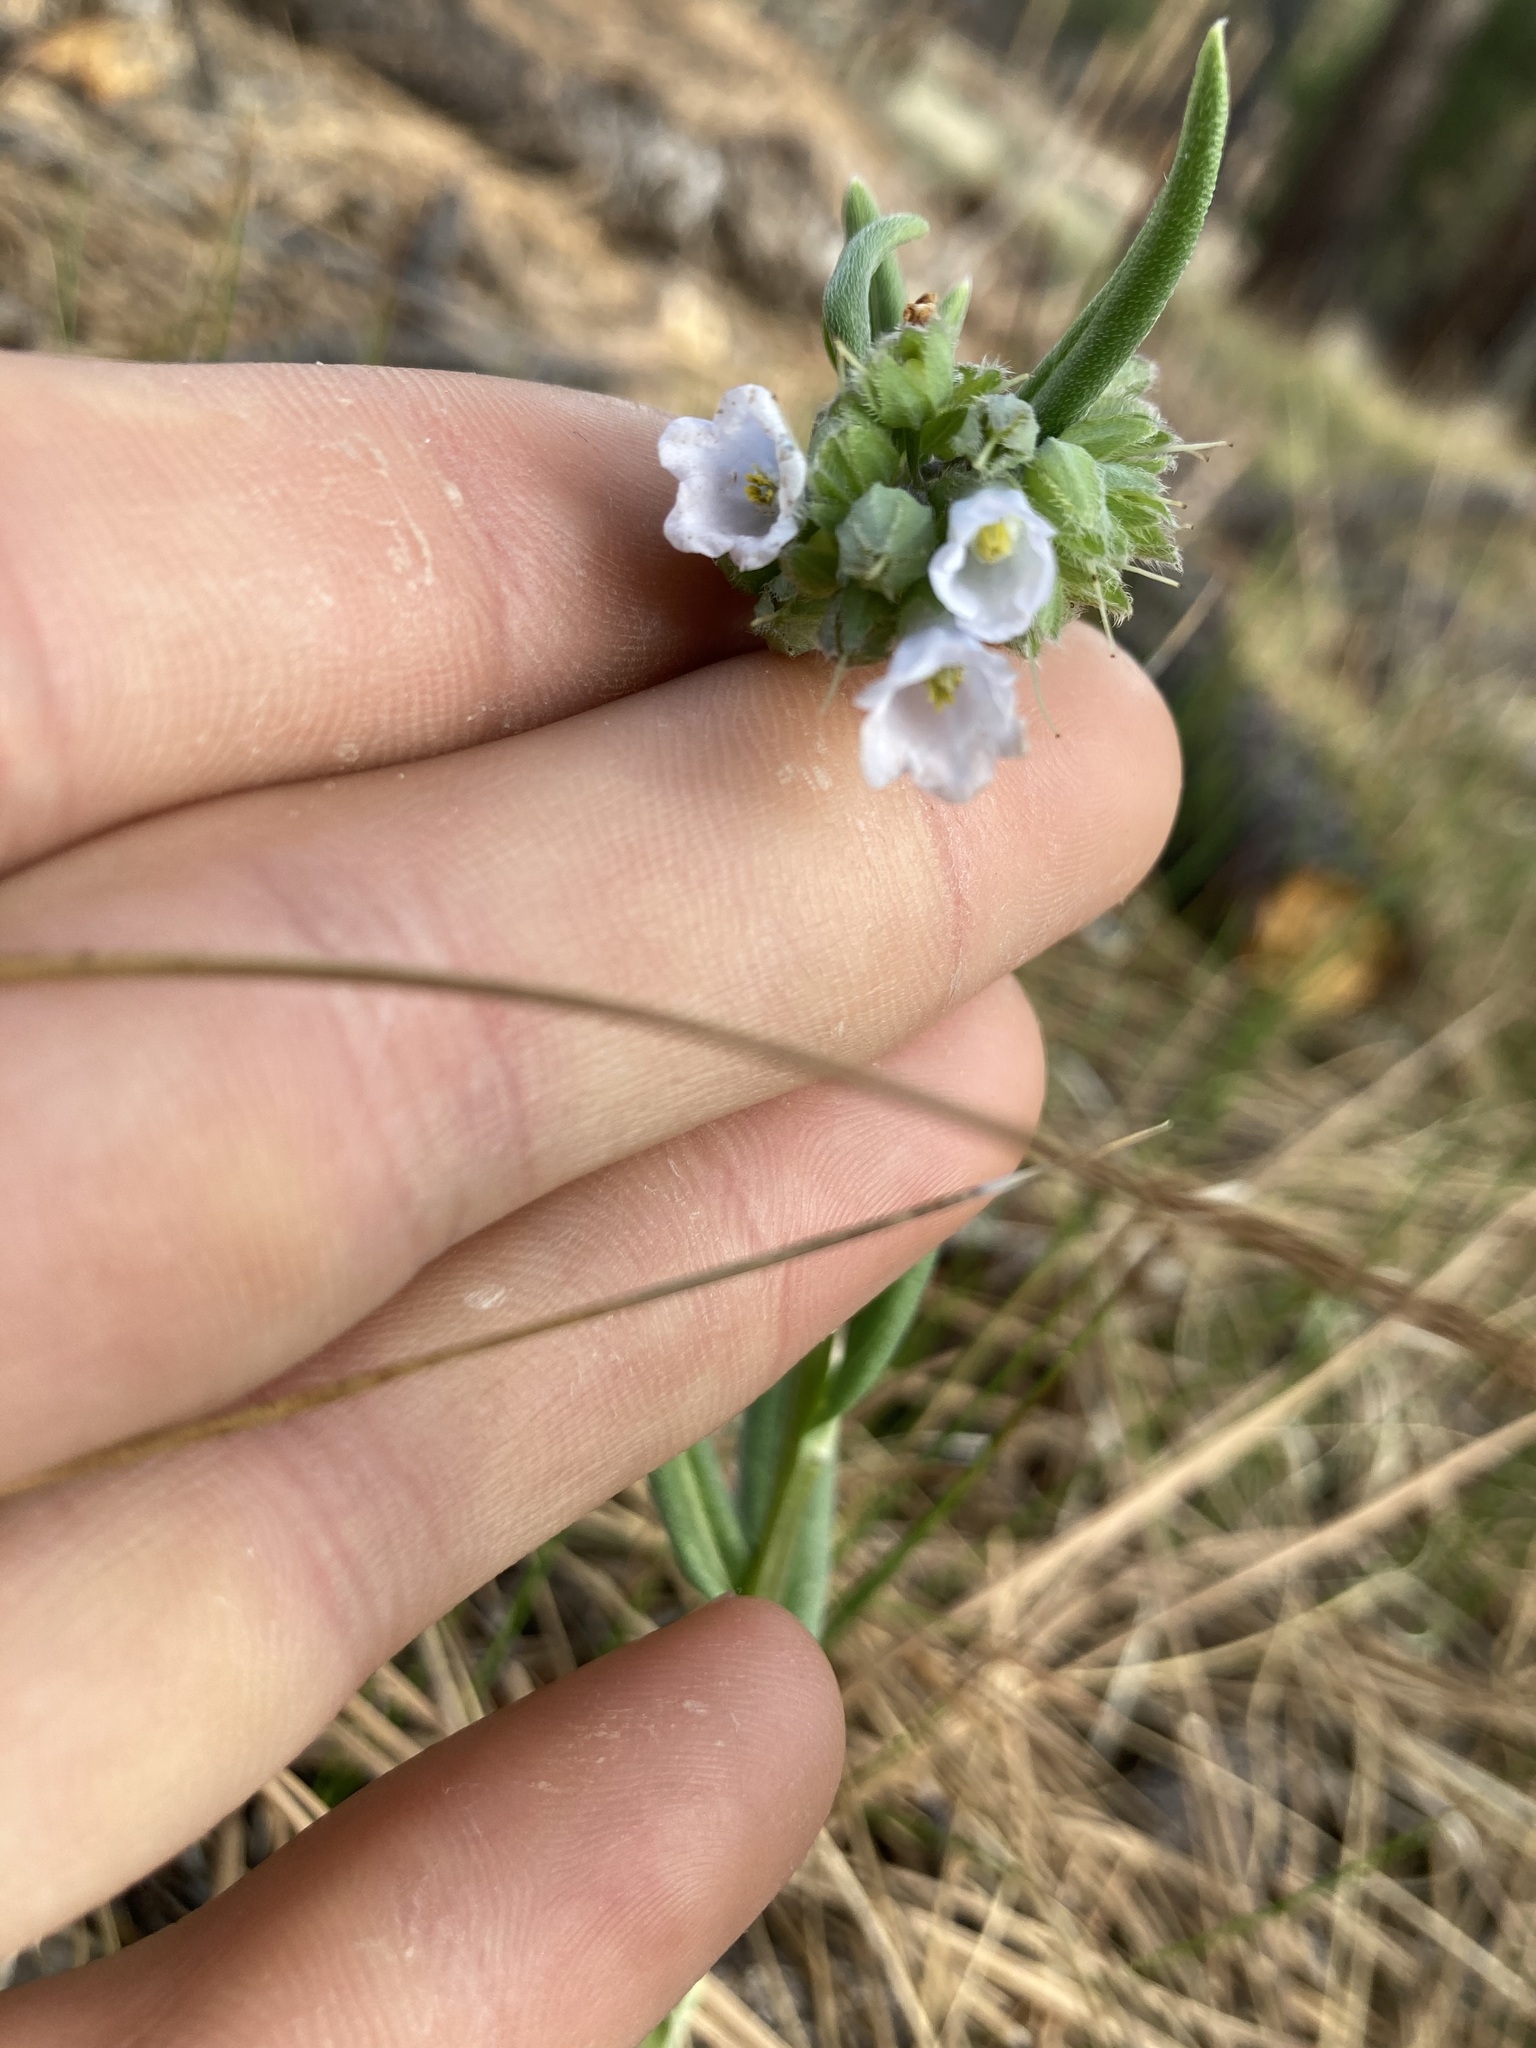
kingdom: Plantae
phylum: Tracheophyta
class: Magnoliopsida
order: Boraginales
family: Boraginaceae
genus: Mertensia
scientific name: Mertensia fendleri
